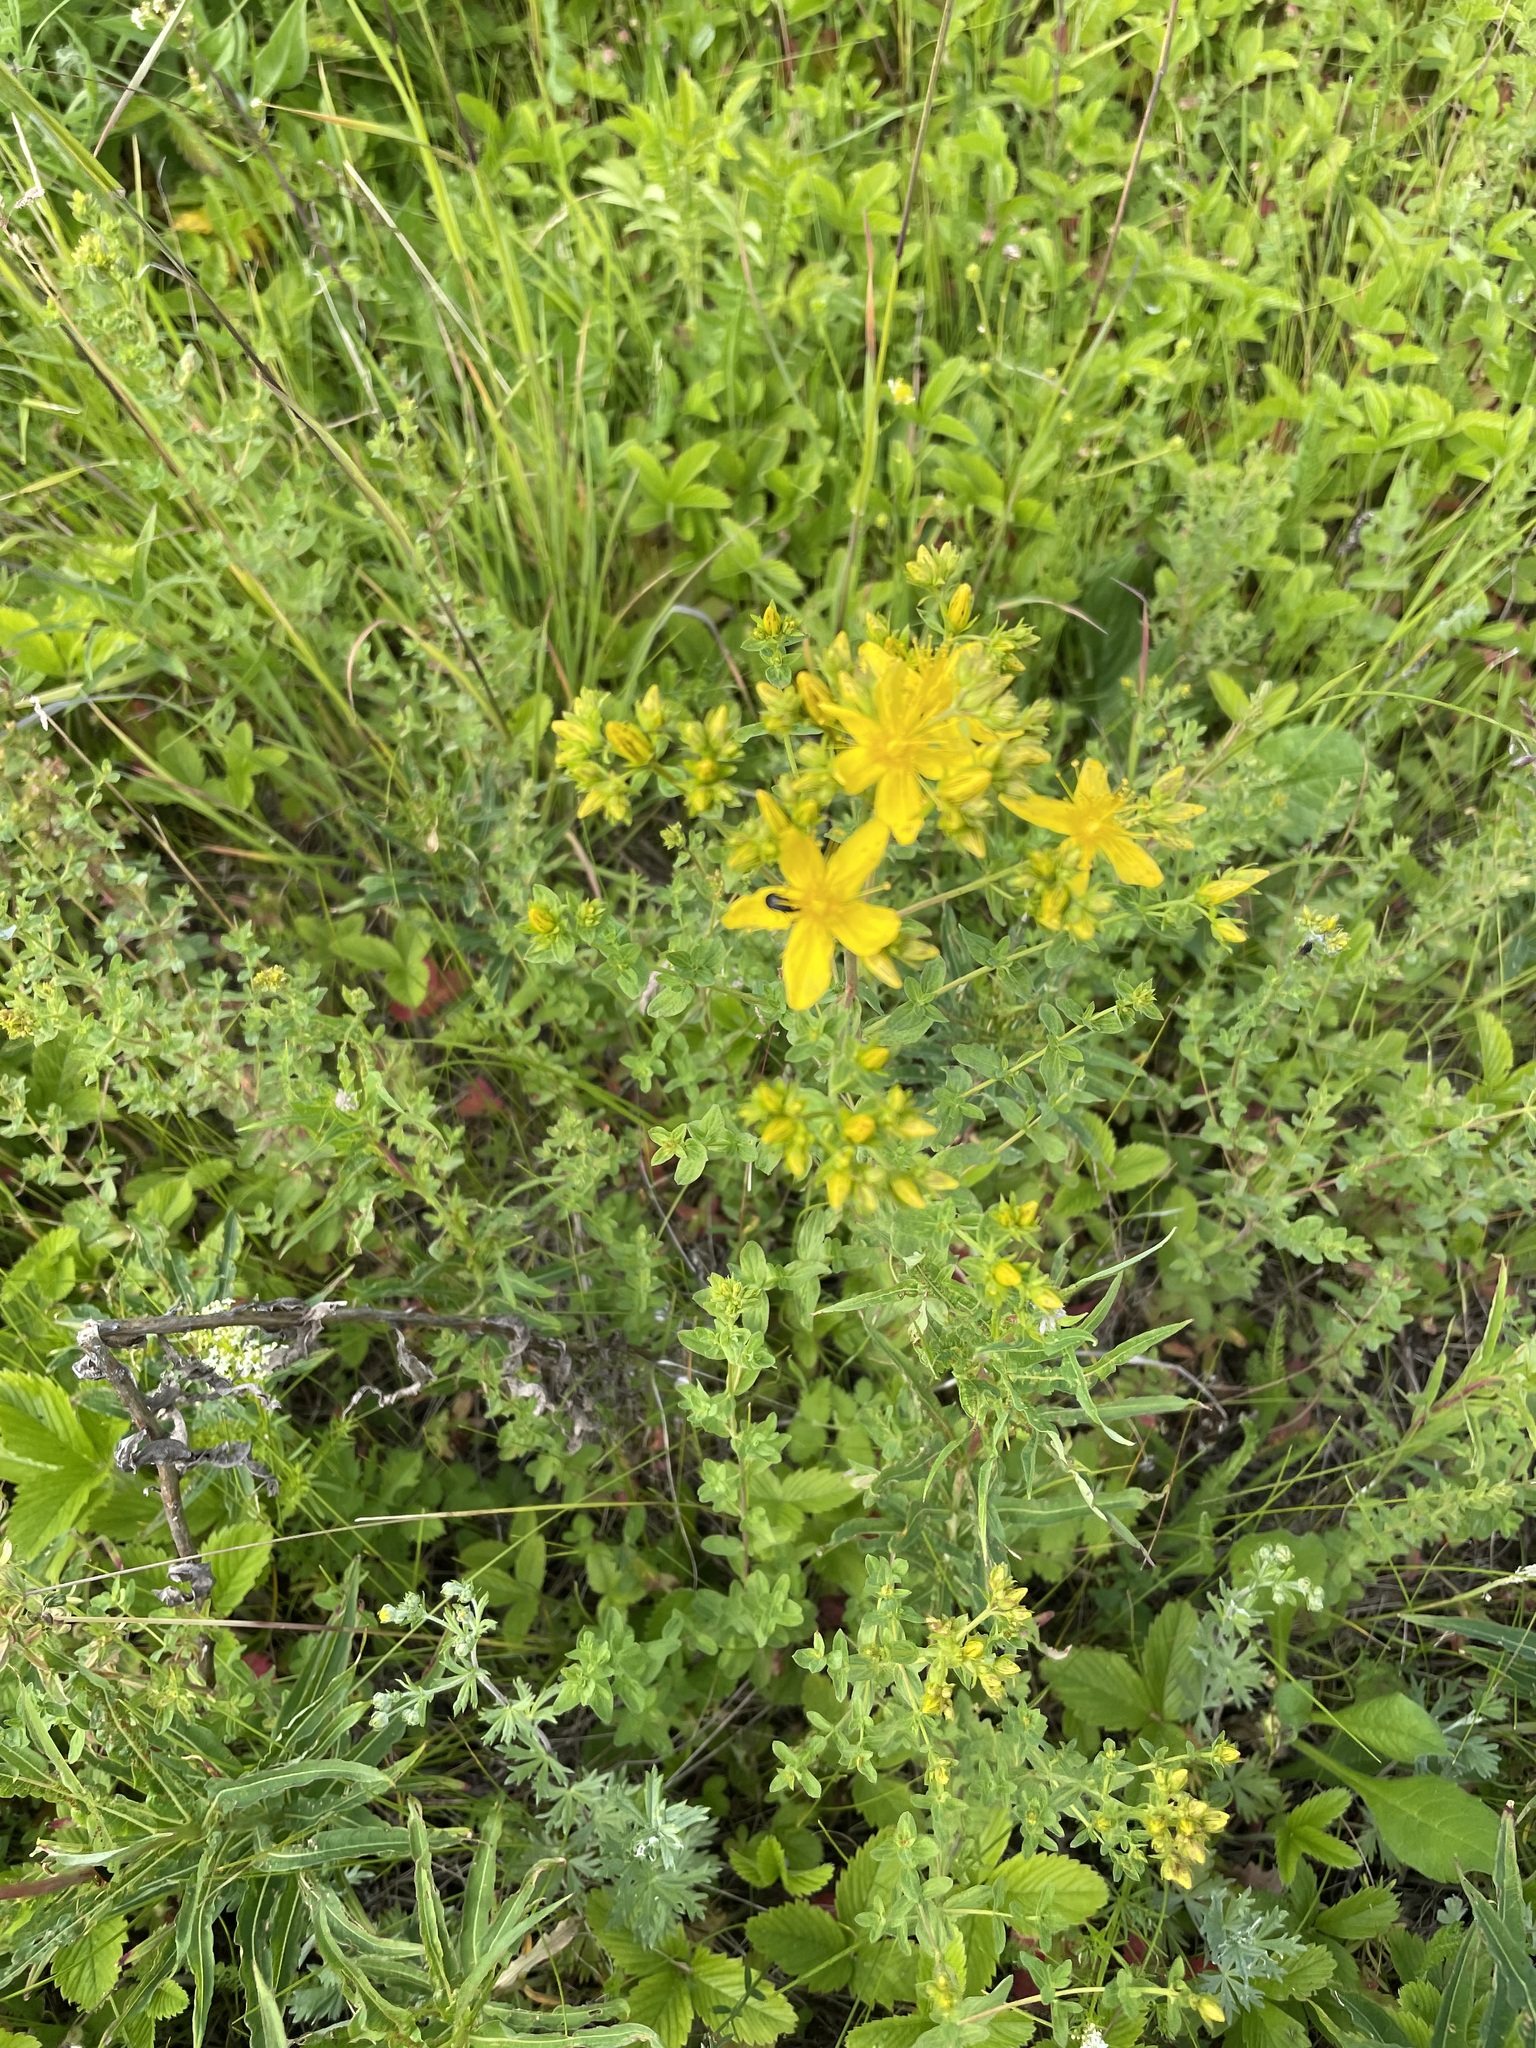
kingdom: Plantae
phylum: Tracheophyta
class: Magnoliopsida
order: Malpighiales
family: Hypericaceae
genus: Hypericum
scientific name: Hypericum perforatum
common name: Common st. johnswort
